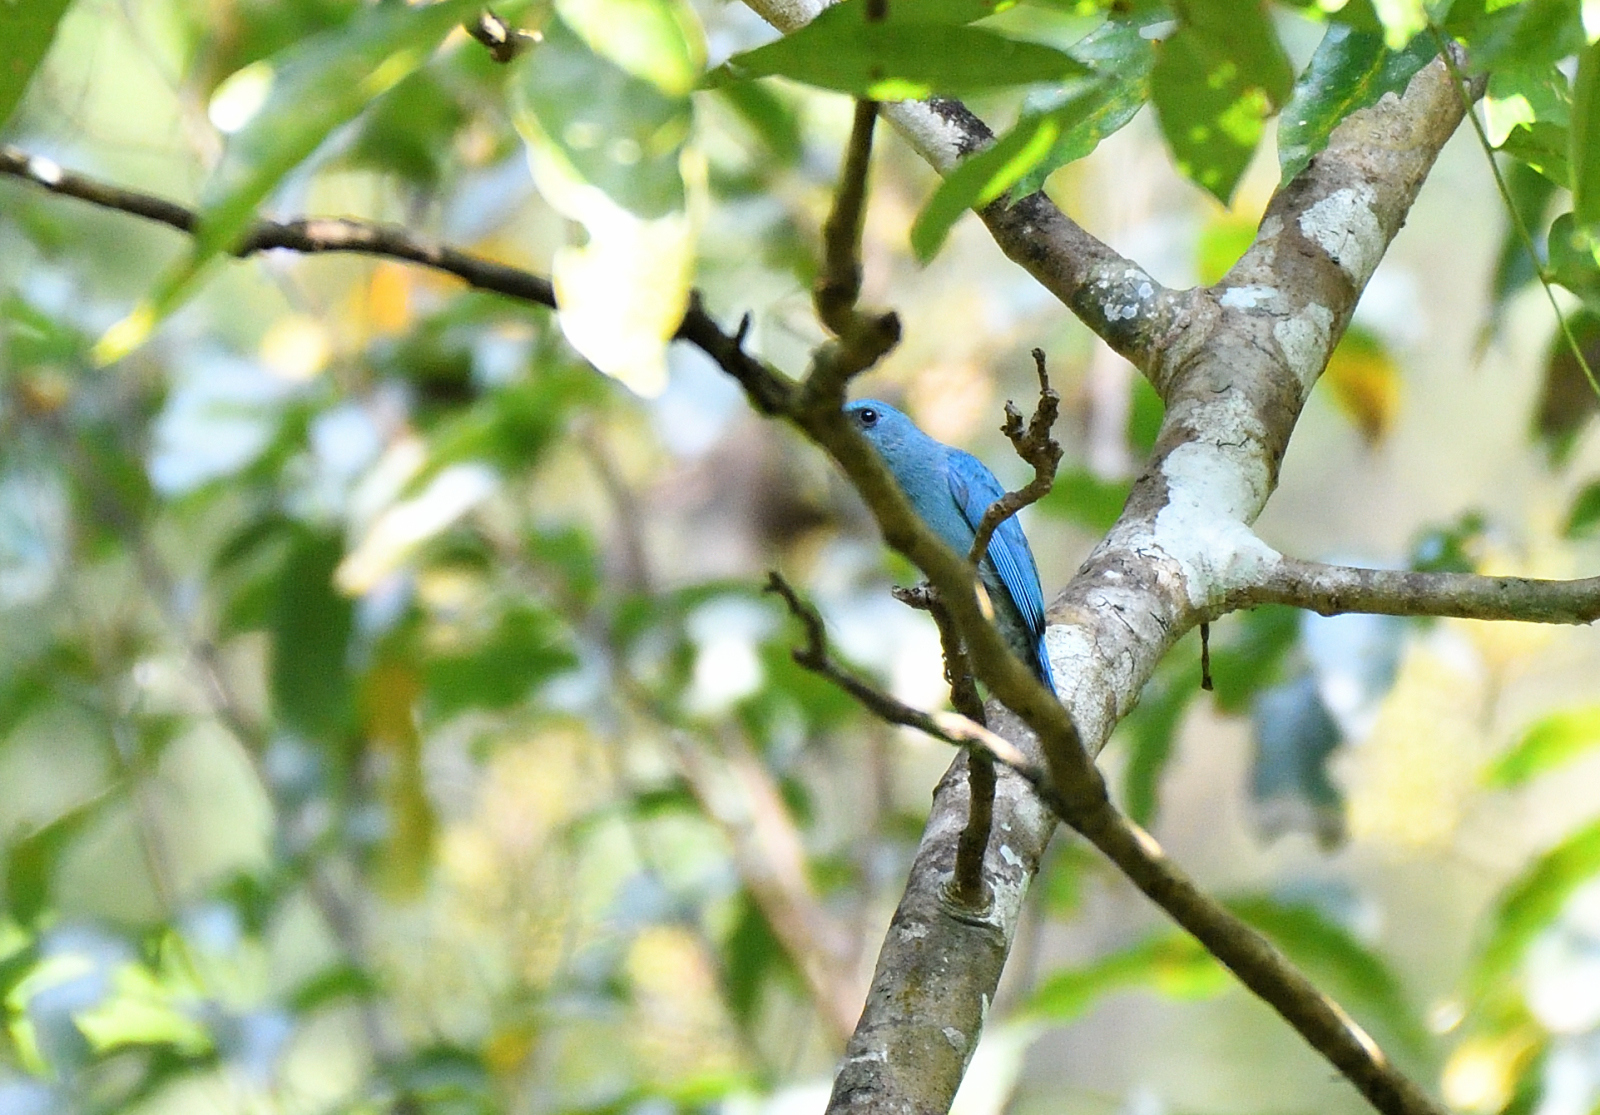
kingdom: Animalia
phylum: Chordata
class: Aves
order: Passeriformes
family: Muscicapidae
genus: Eumyias
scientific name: Eumyias thalassinus
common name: Verditer flycatcher
